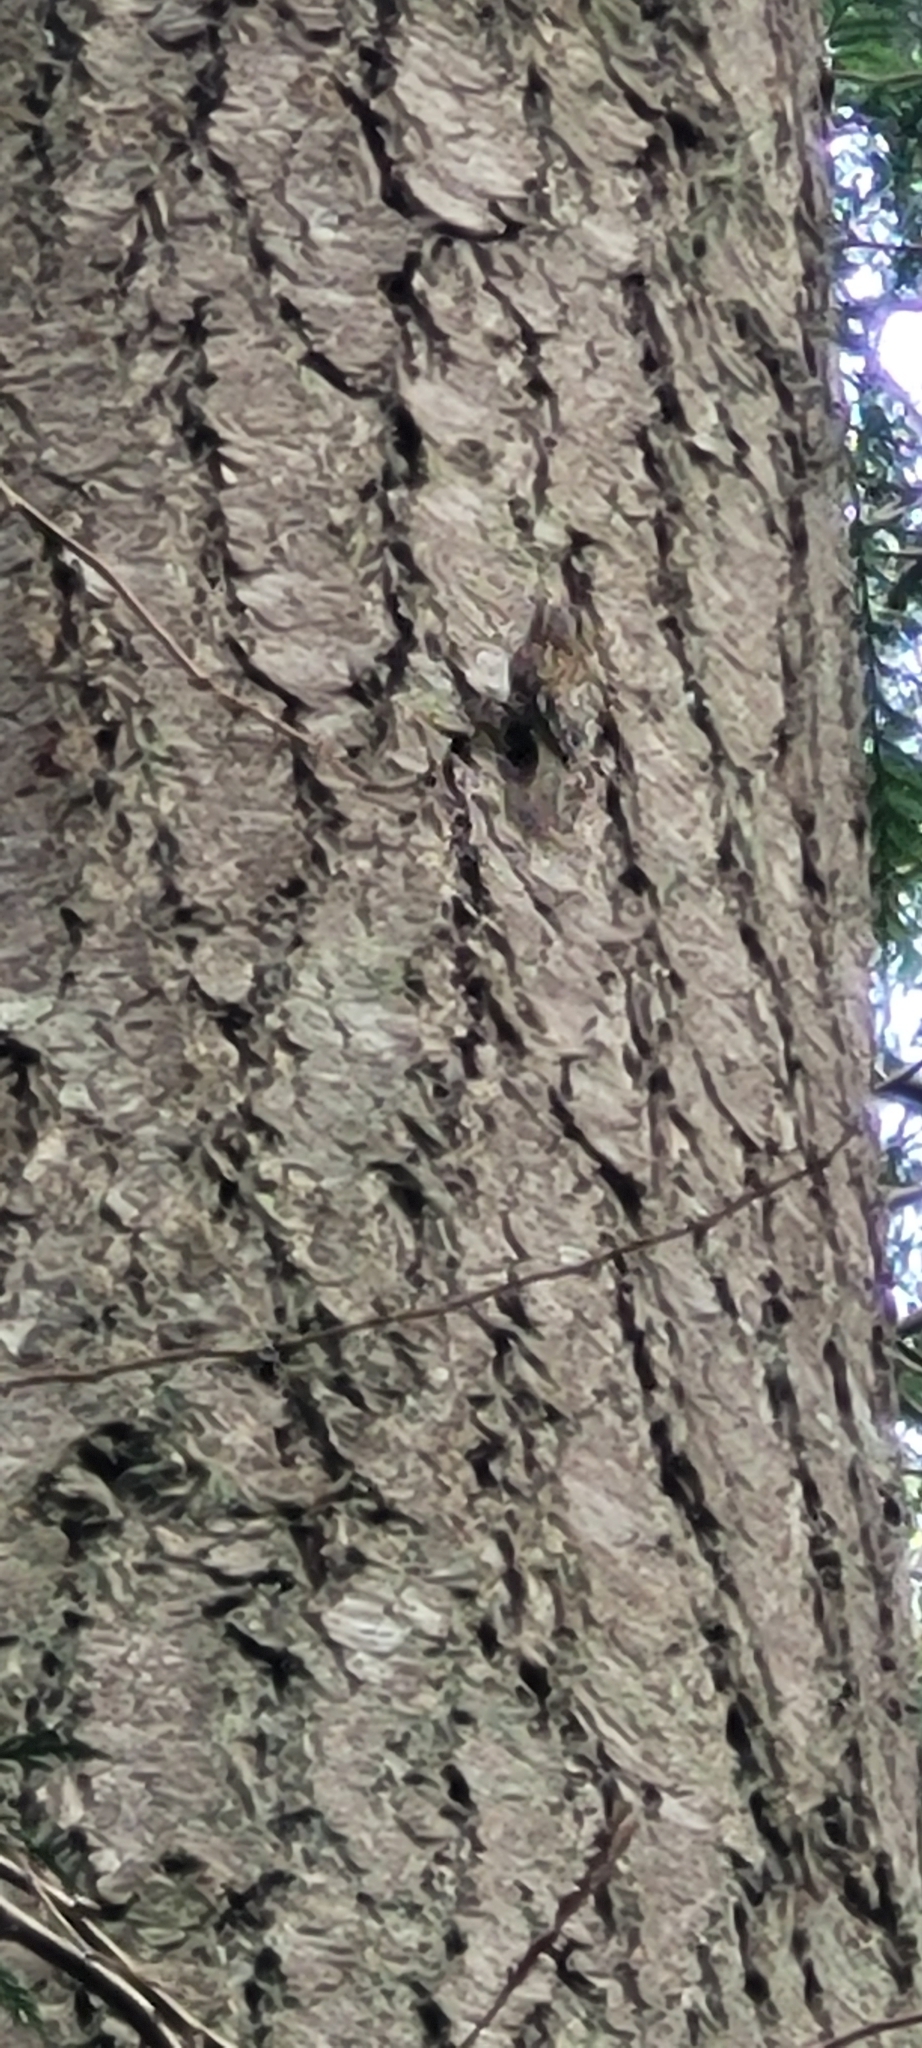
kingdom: Animalia
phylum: Chordata
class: Aves
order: Passeriformes
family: Certhiidae
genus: Certhia
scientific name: Certhia americana
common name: Brown creeper
